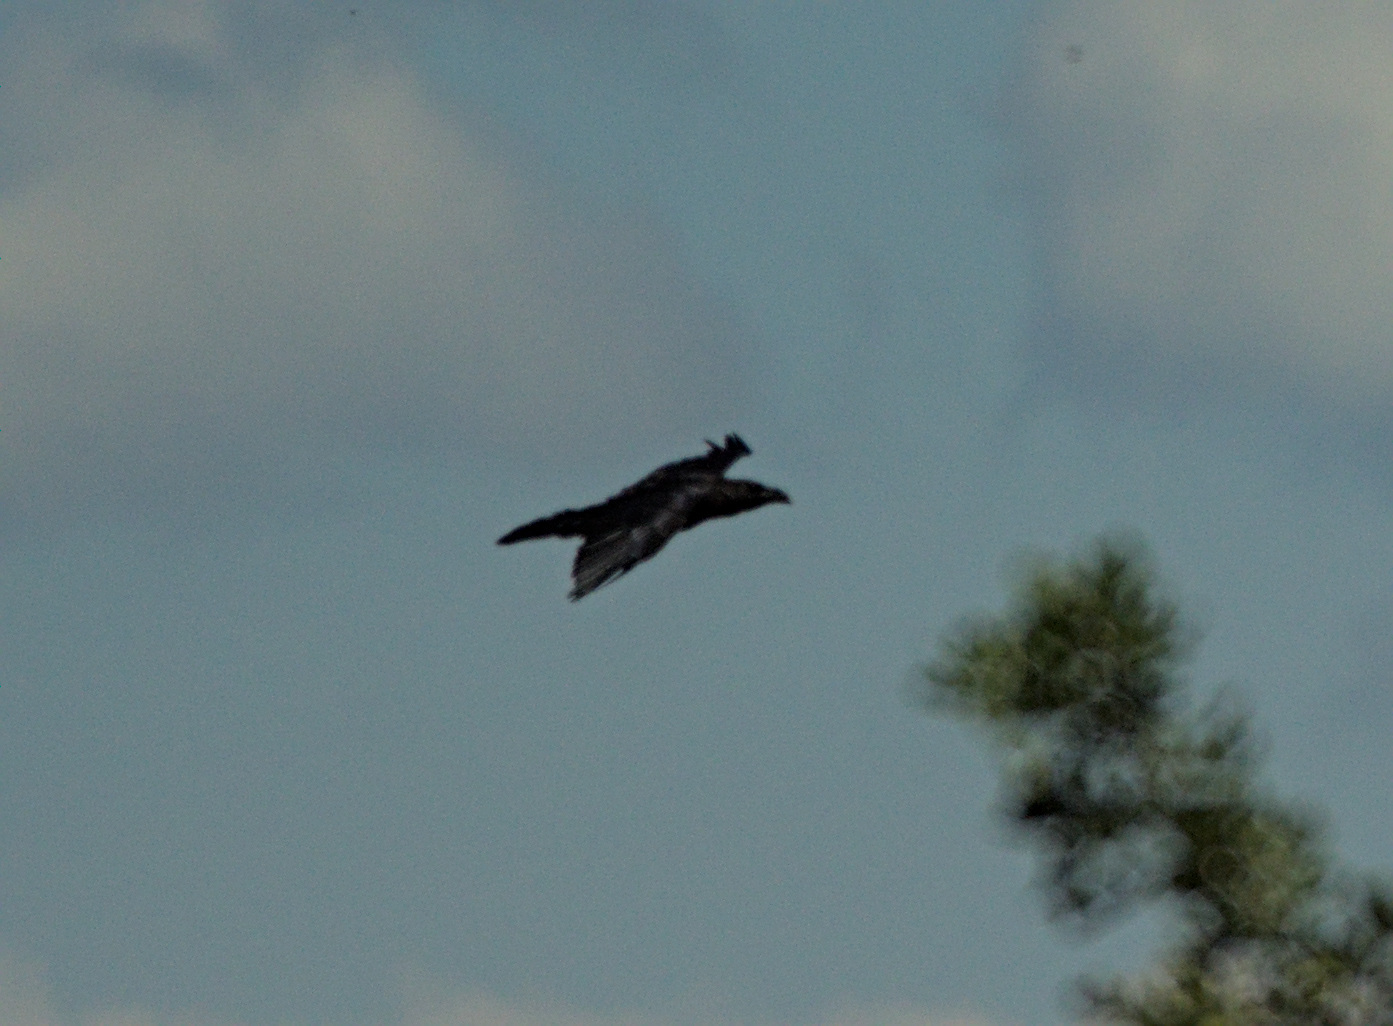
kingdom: Animalia
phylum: Chordata
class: Aves
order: Passeriformes
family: Corvidae
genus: Corvus
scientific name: Corvus corax
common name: Common raven
